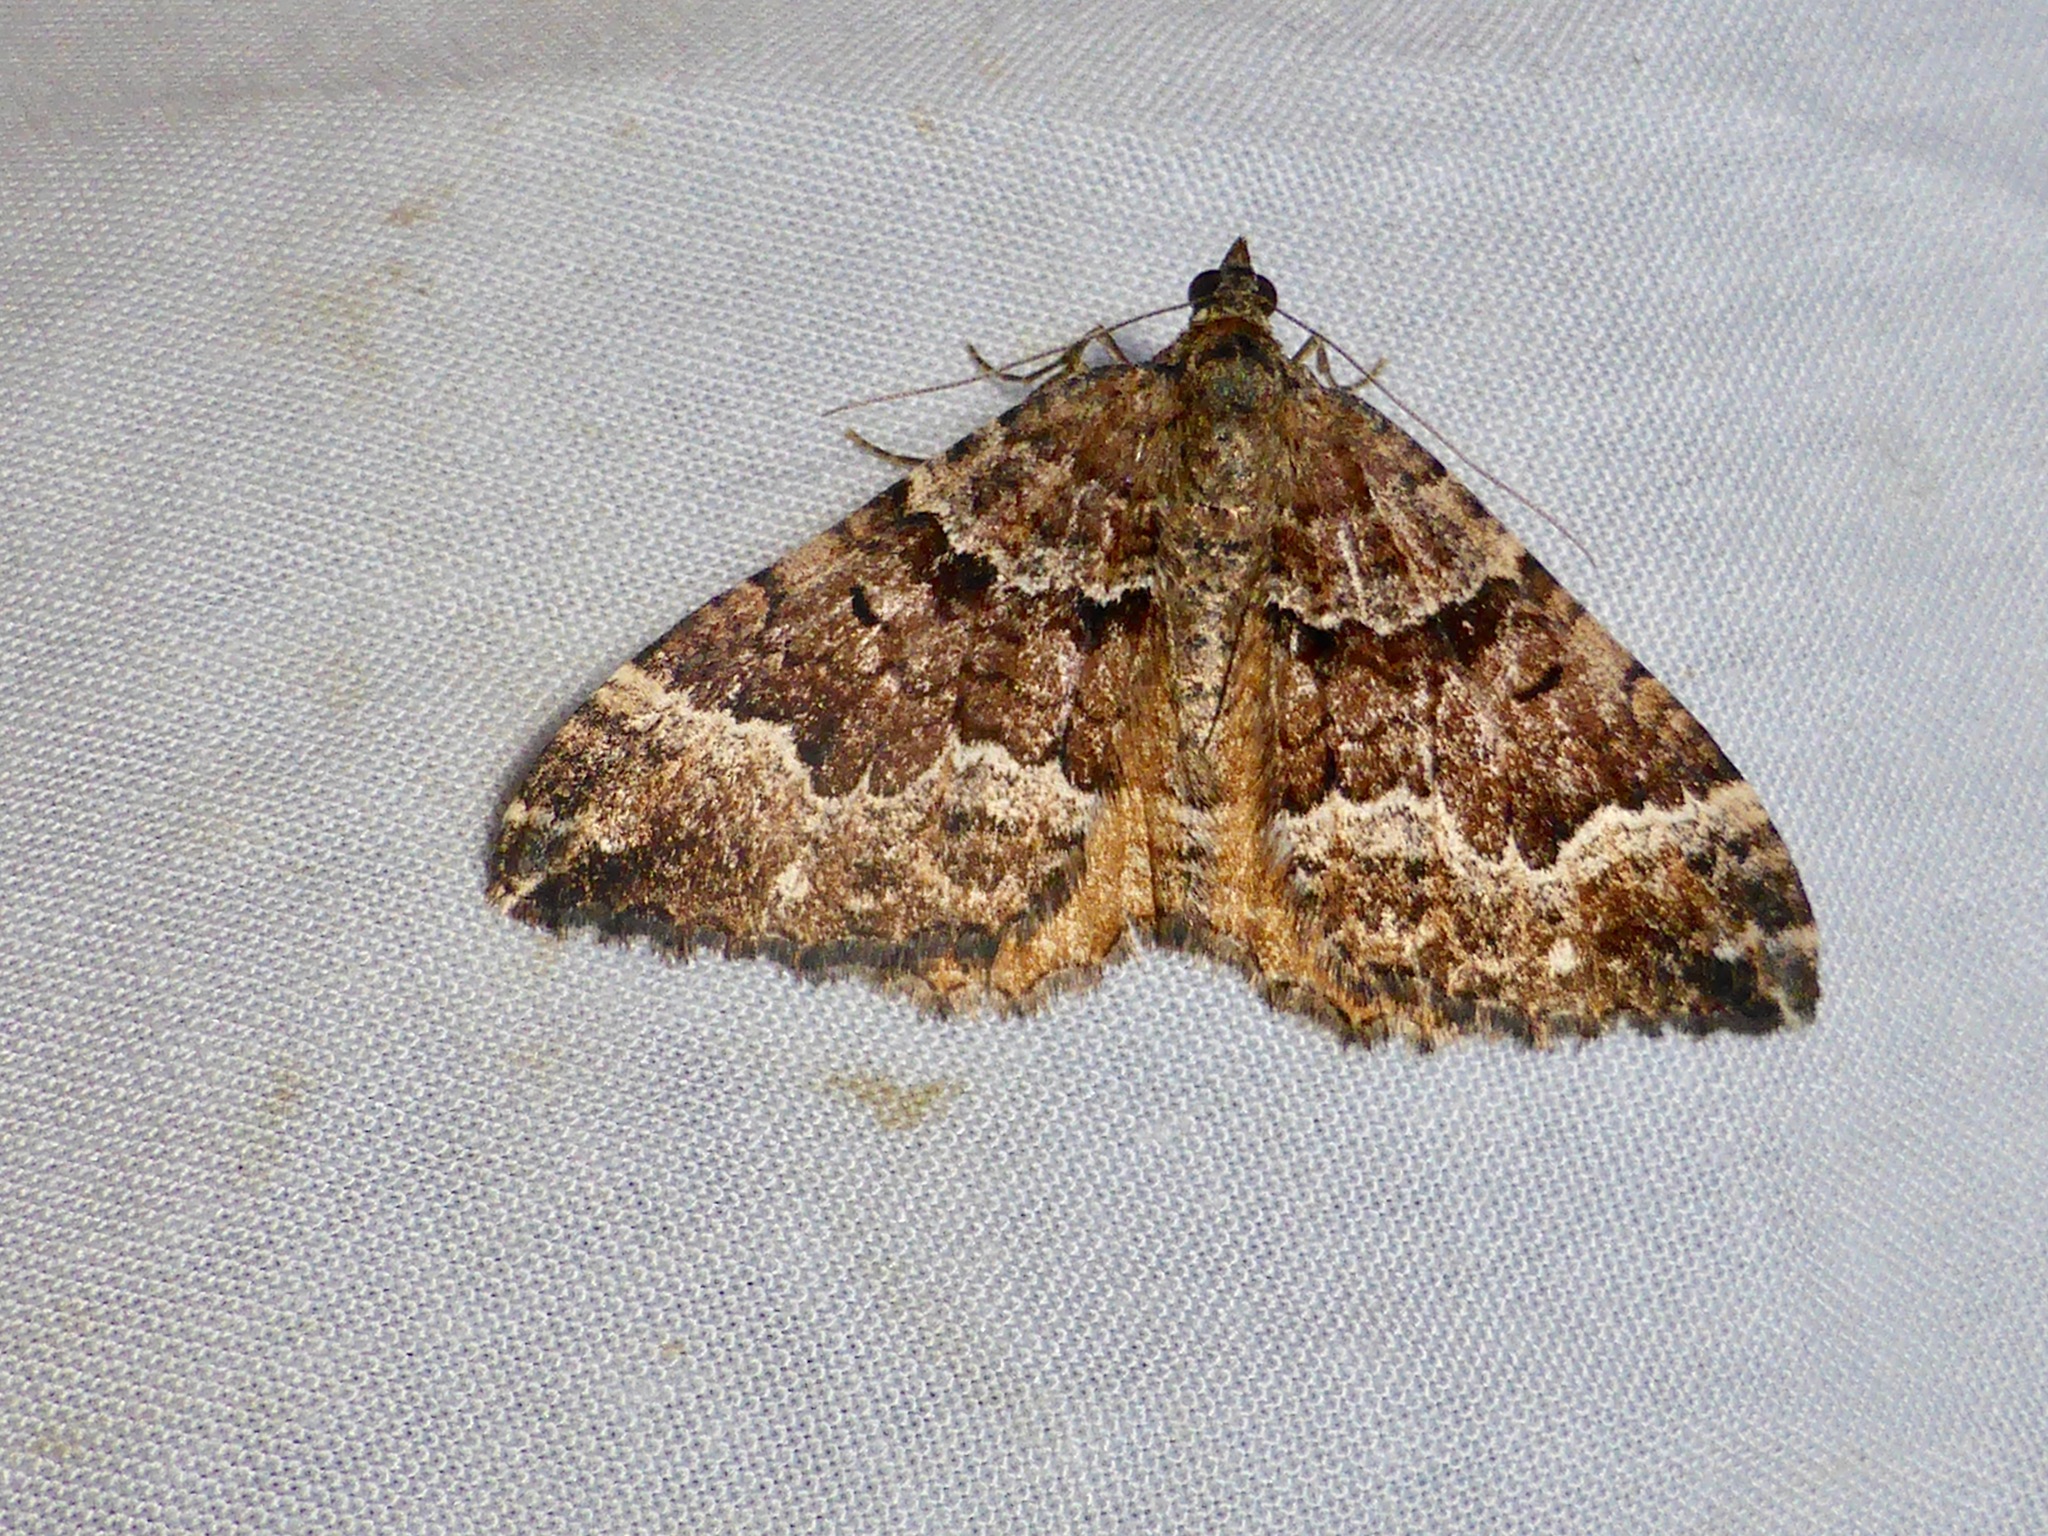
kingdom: Animalia
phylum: Arthropoda
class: Insecta
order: Lepidoptera
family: Geometridae
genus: Hydriomena
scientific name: Hydriomena deltoidata
